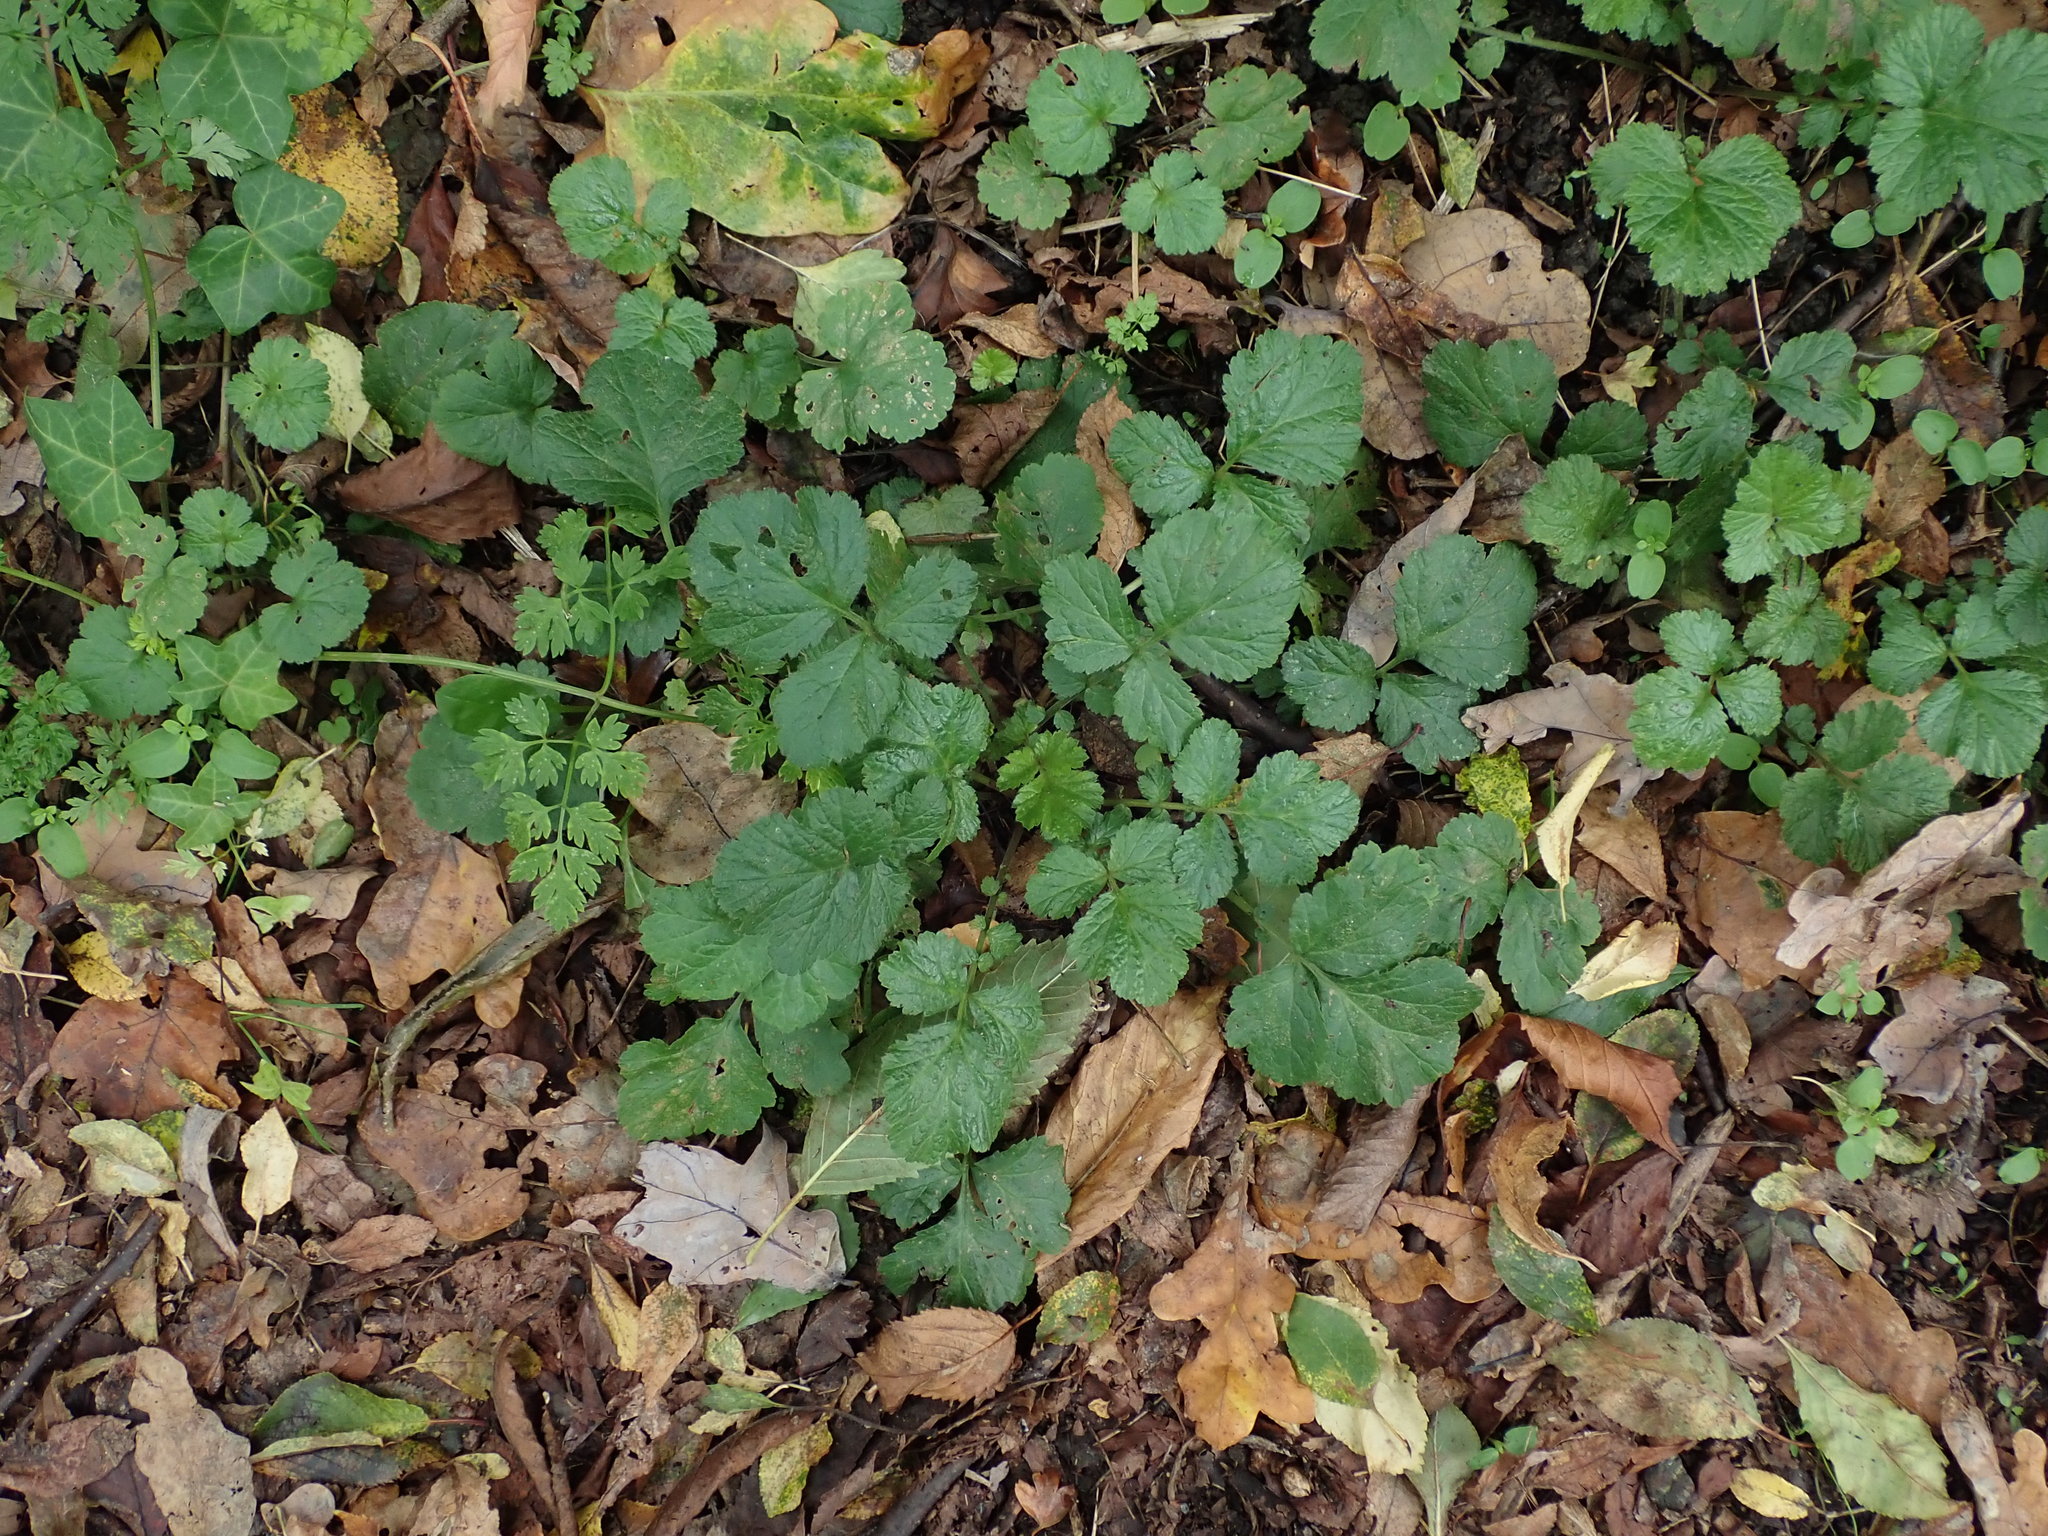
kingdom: Plantae
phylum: Tracheophyta
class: Magnoliopsida
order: Rosales
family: Rosaceae
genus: Geum
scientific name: Geum urbanum
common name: Wood avens
